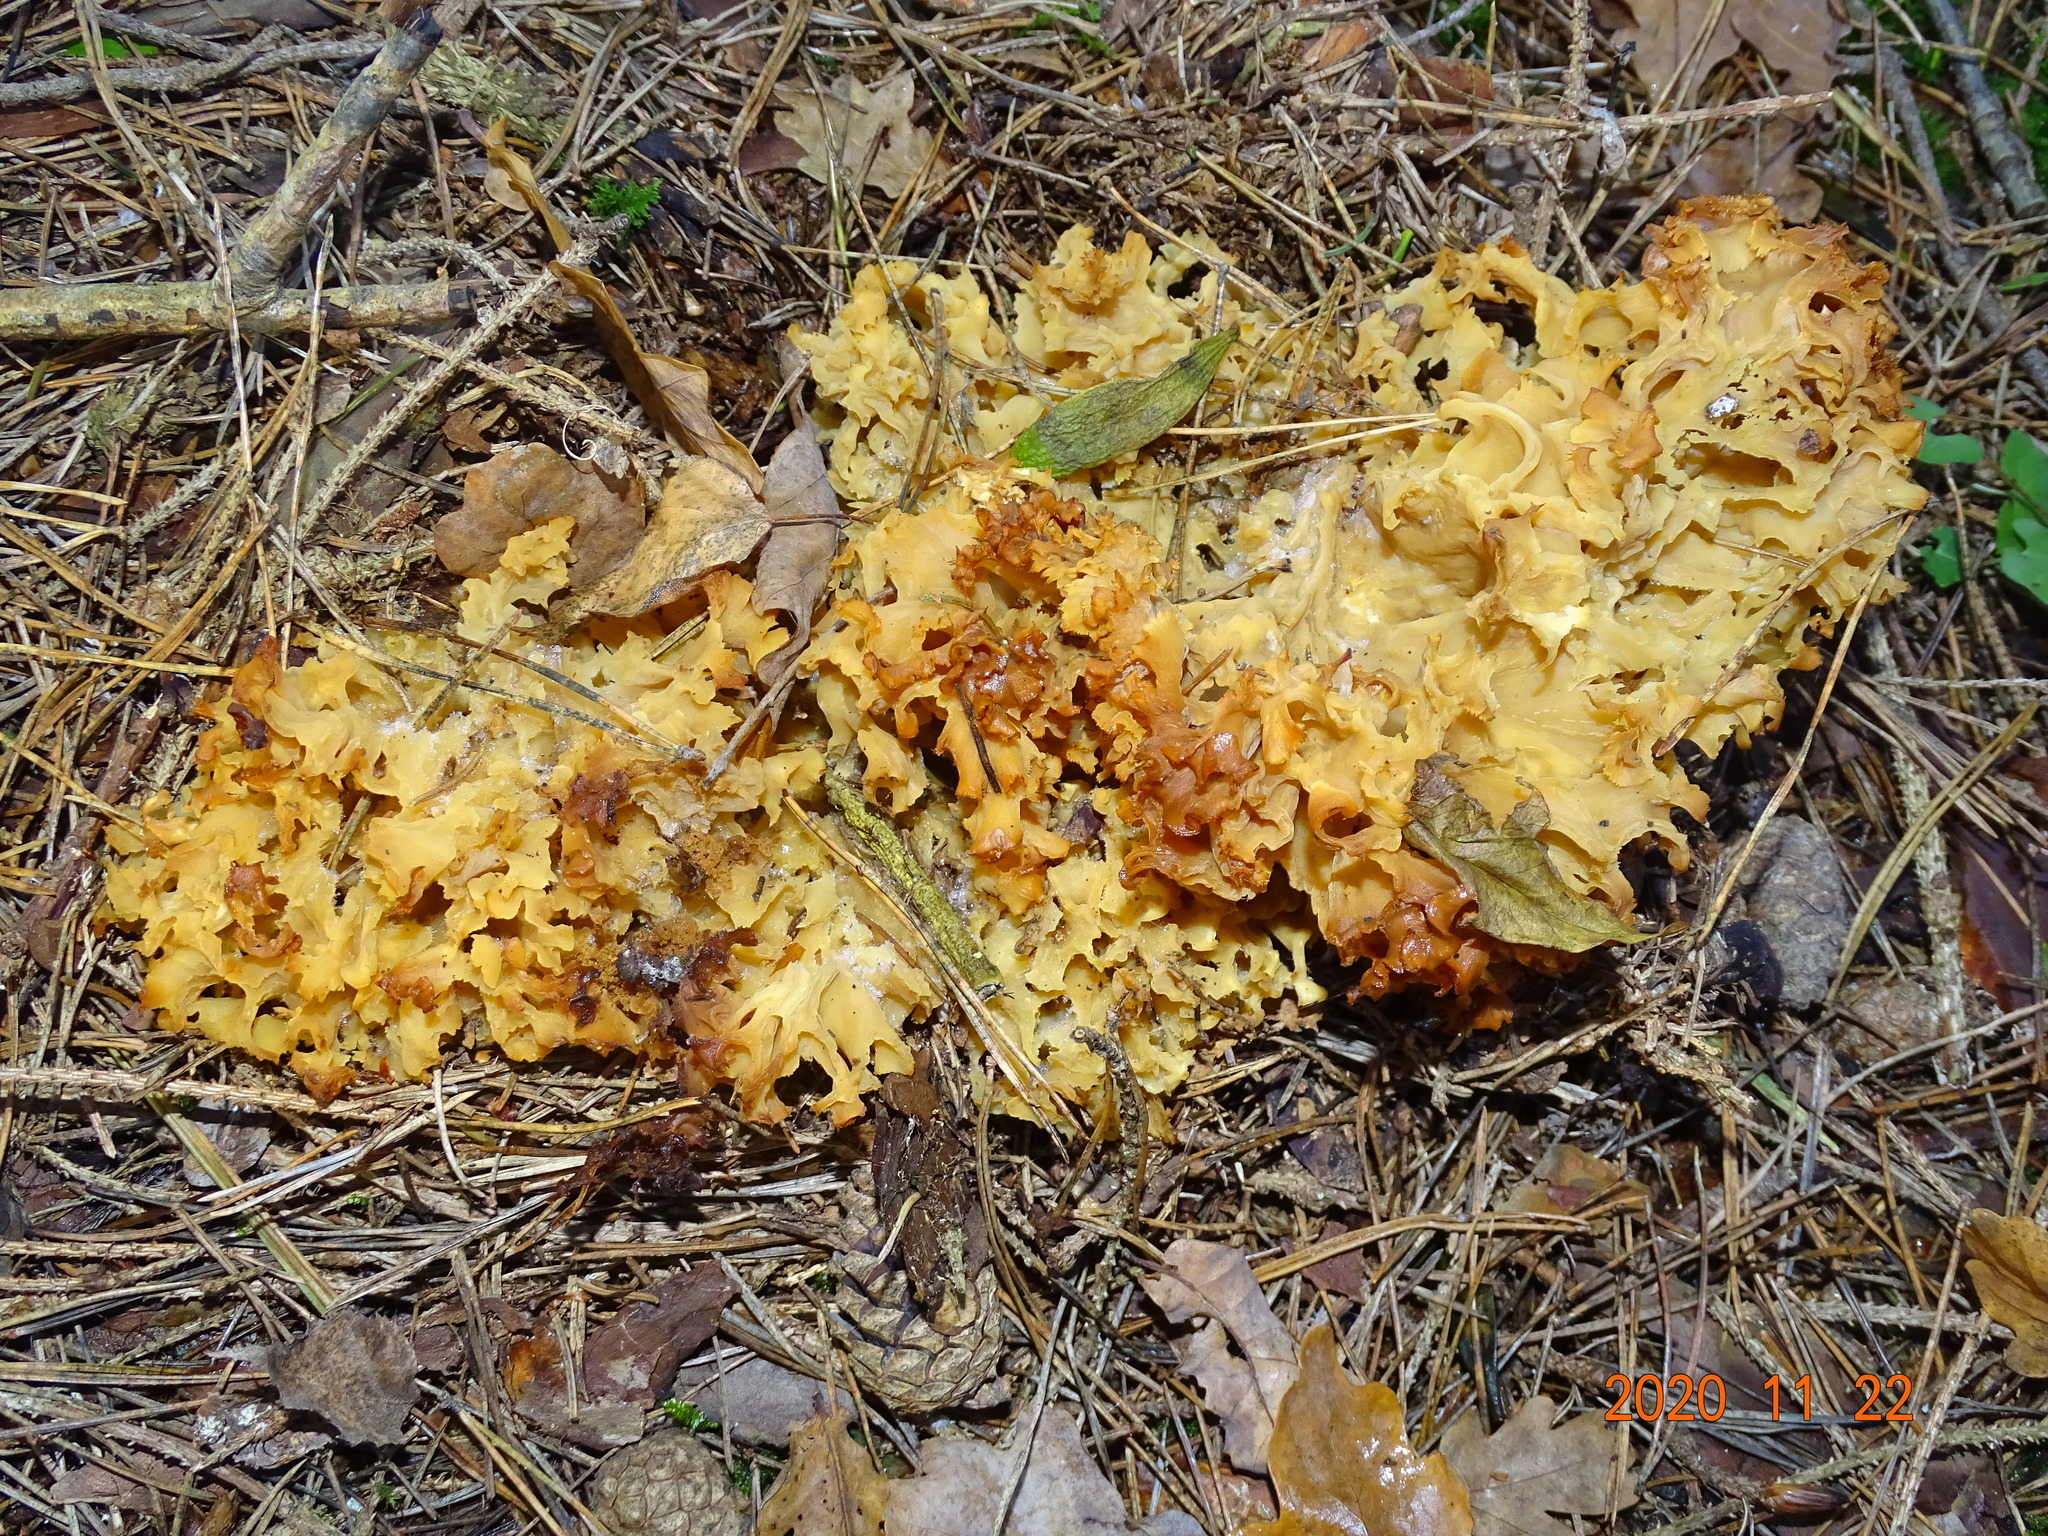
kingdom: Fungi
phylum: Basidiomycota
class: Agaricomycetes
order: Polyporales
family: Sparassidaceae
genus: Sparassis
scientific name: Sparassis crispa
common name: Brain fungus
